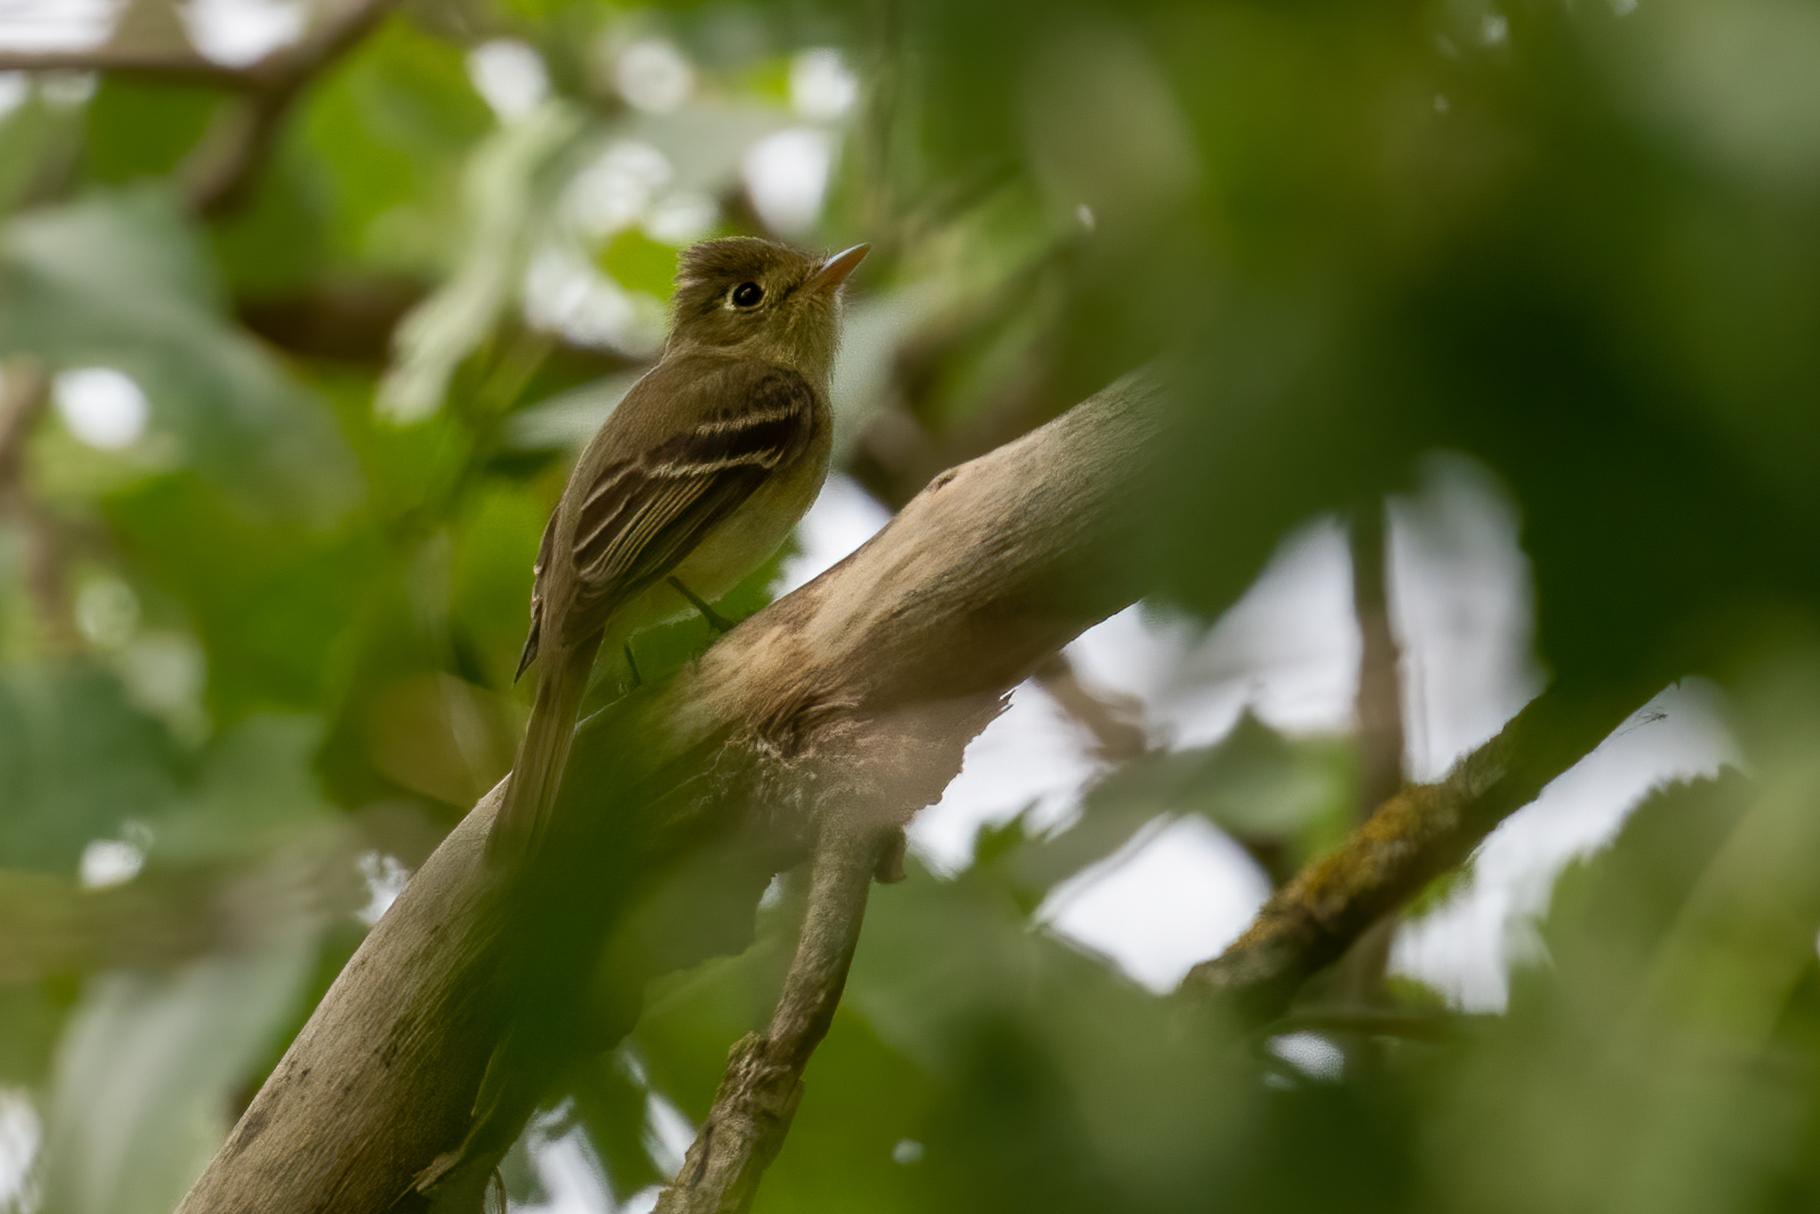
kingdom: Animalia
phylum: Chordata
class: Aves
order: Passeriformes
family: Tyrannidae
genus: Empidonax
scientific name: Empidonax difficilis
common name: Pacific-slope flycatcher
